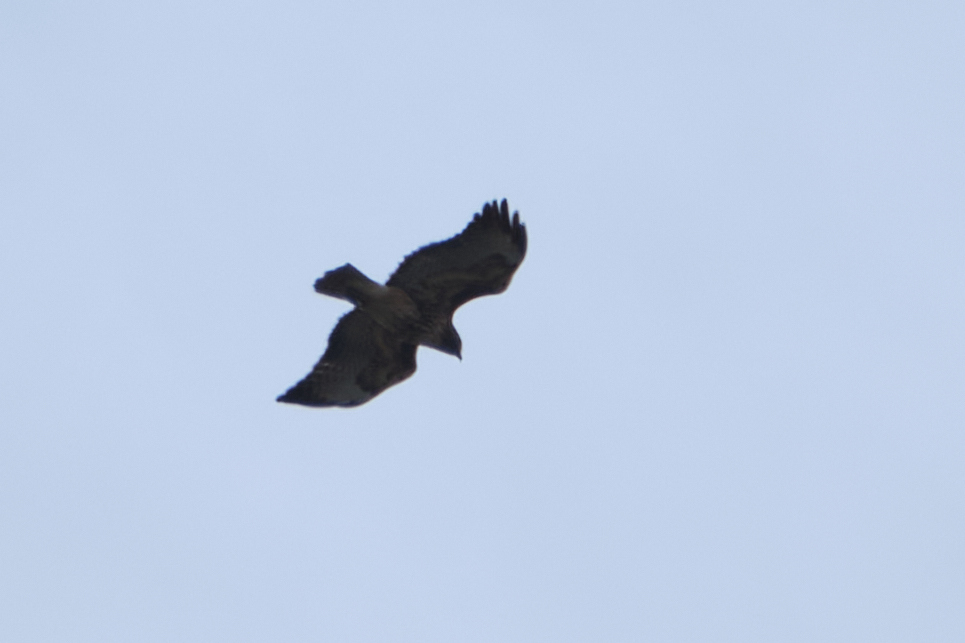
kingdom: Animalia
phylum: Chordata
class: Aves
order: Accipitriformes
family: Accipitridae
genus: Buteo
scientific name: Buteo jamaicensis
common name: Red-tailed hawk
